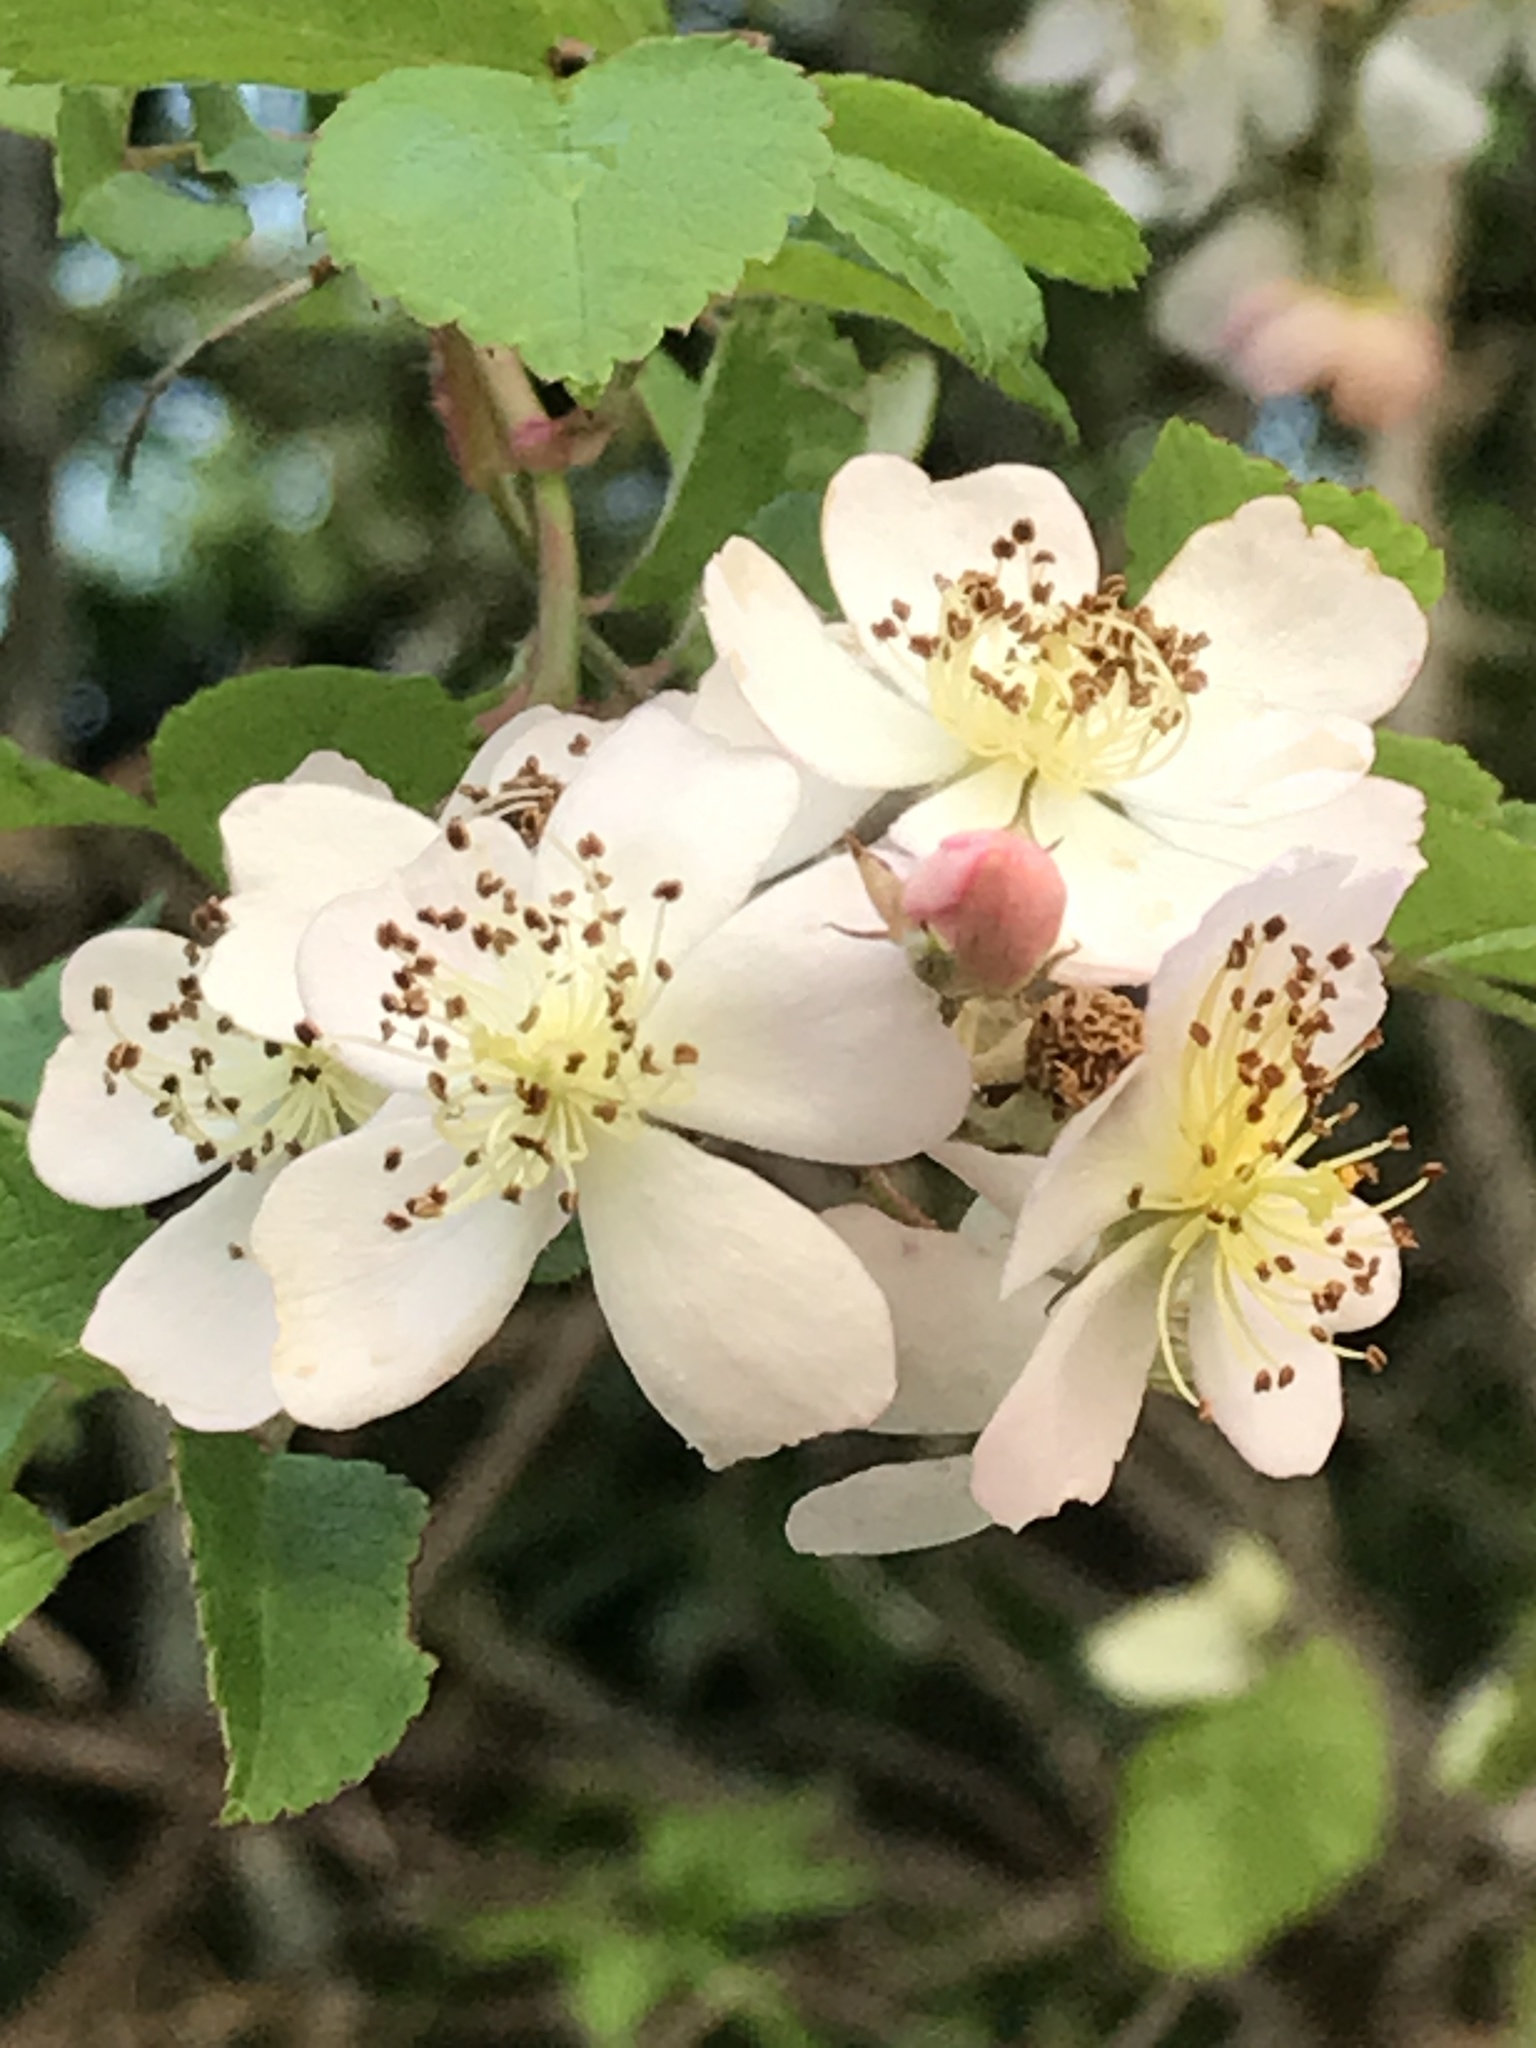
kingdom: Plantae
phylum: Tracheophyta
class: Magnoliopsida
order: Rosales
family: Rosaceae
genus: Rosa
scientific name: Rosa multiflora
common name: Multiflora rose
